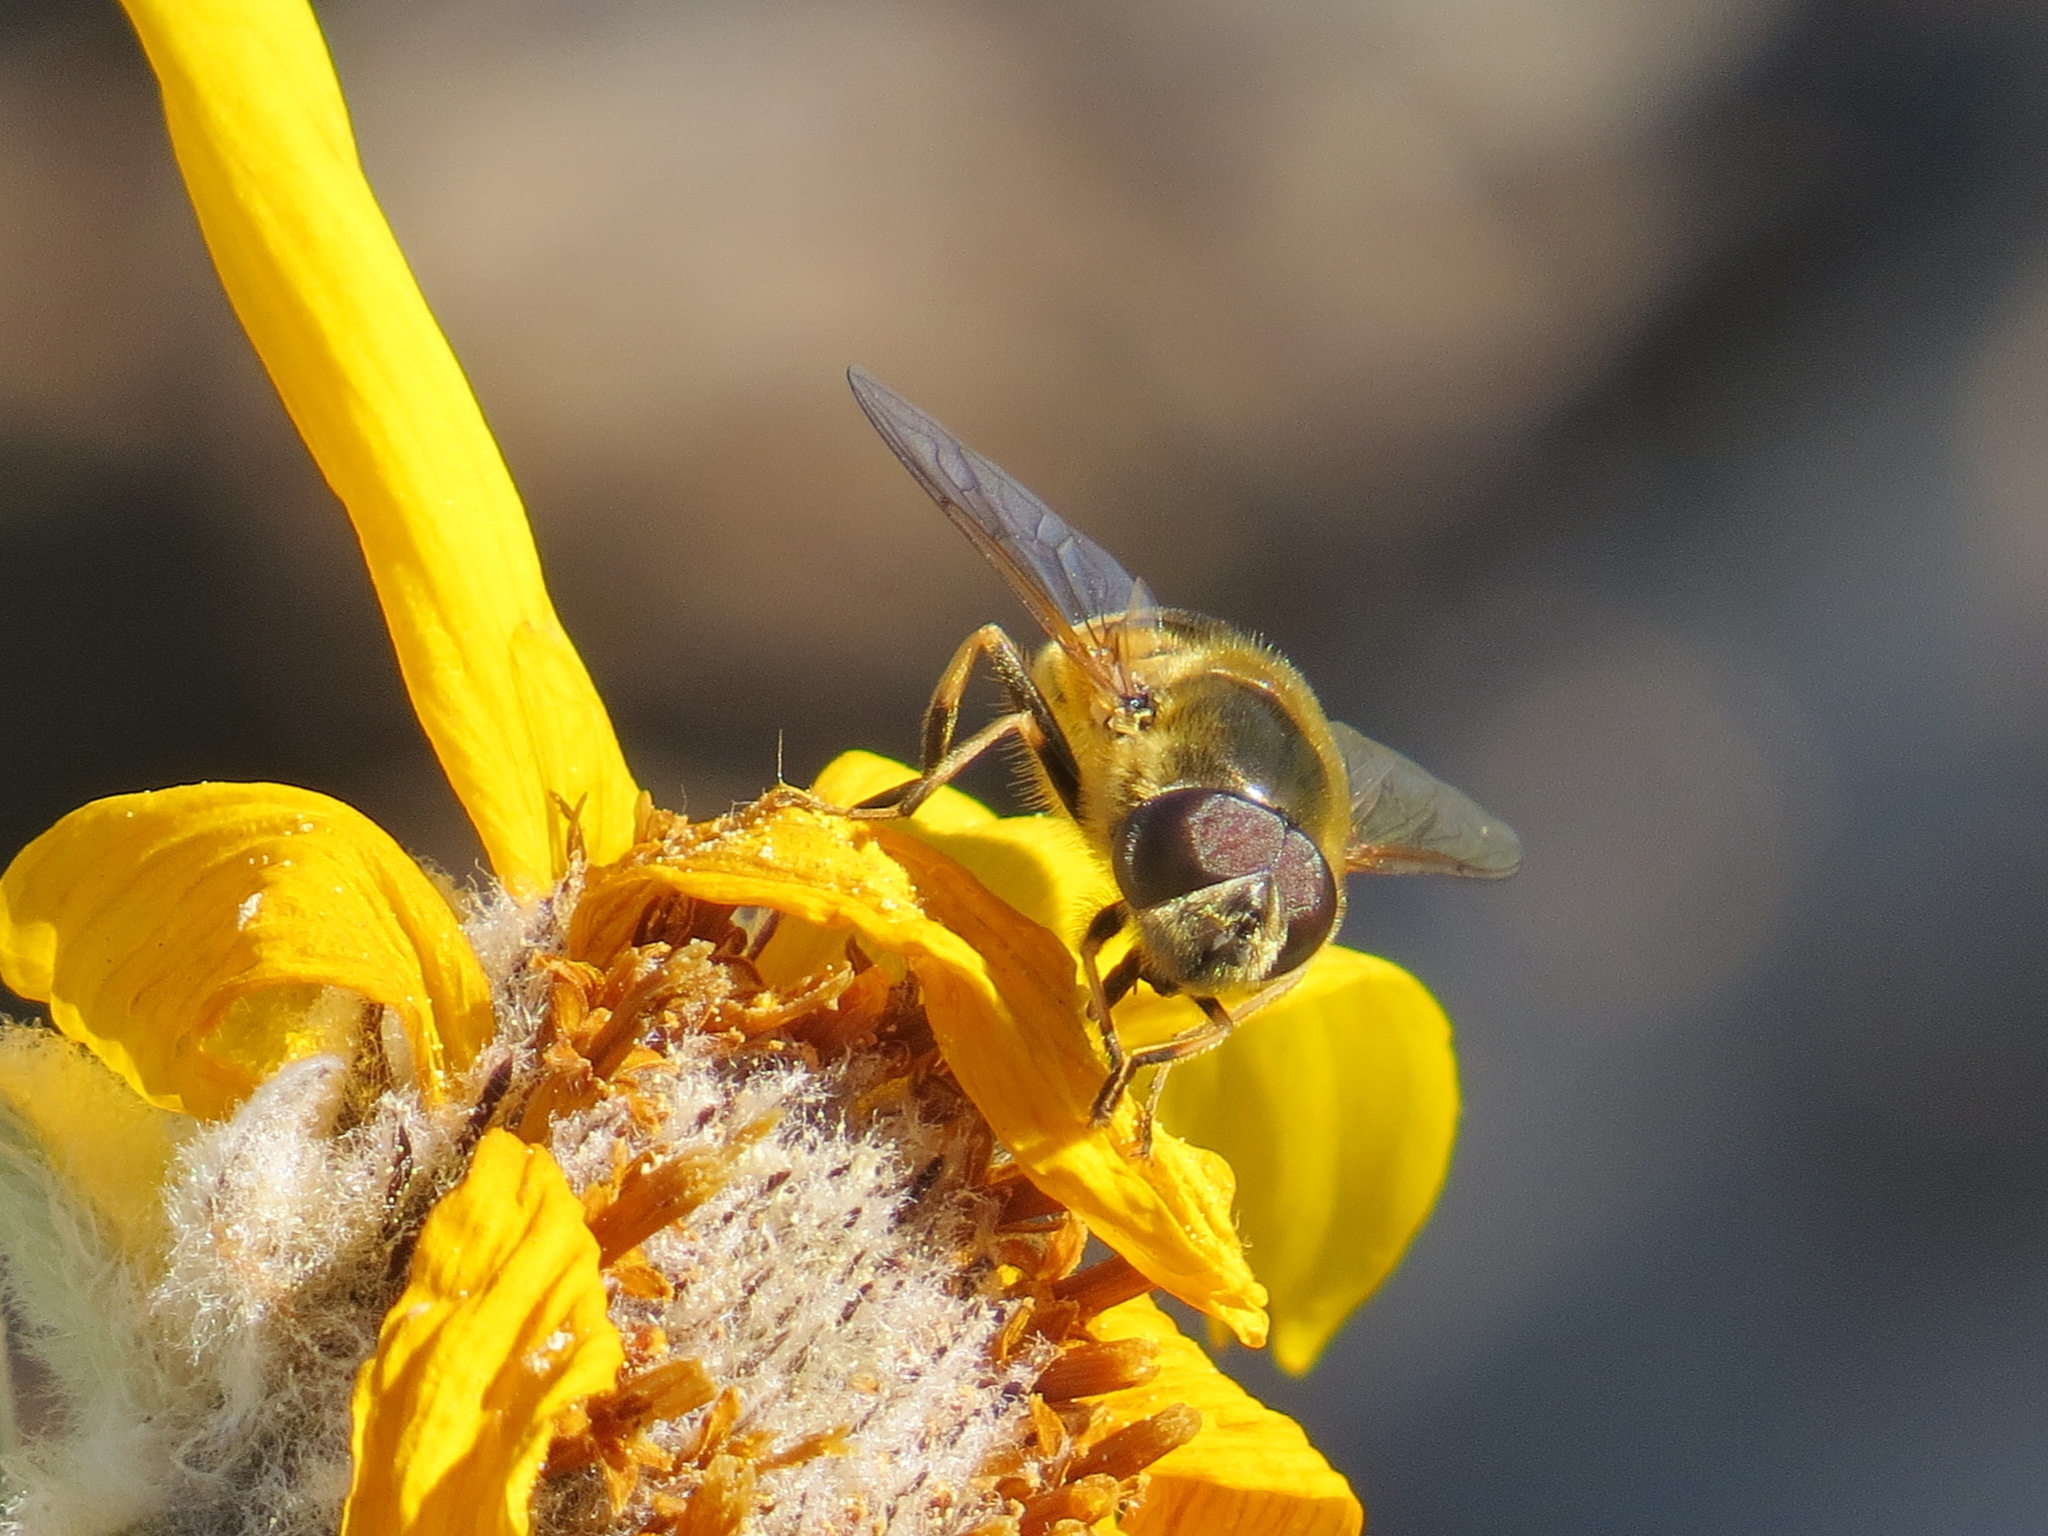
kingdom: Animalia
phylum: Arthropoda
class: Insecta
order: Diptera
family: Syrphidae
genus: Eristalis
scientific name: Eristalis hirta
